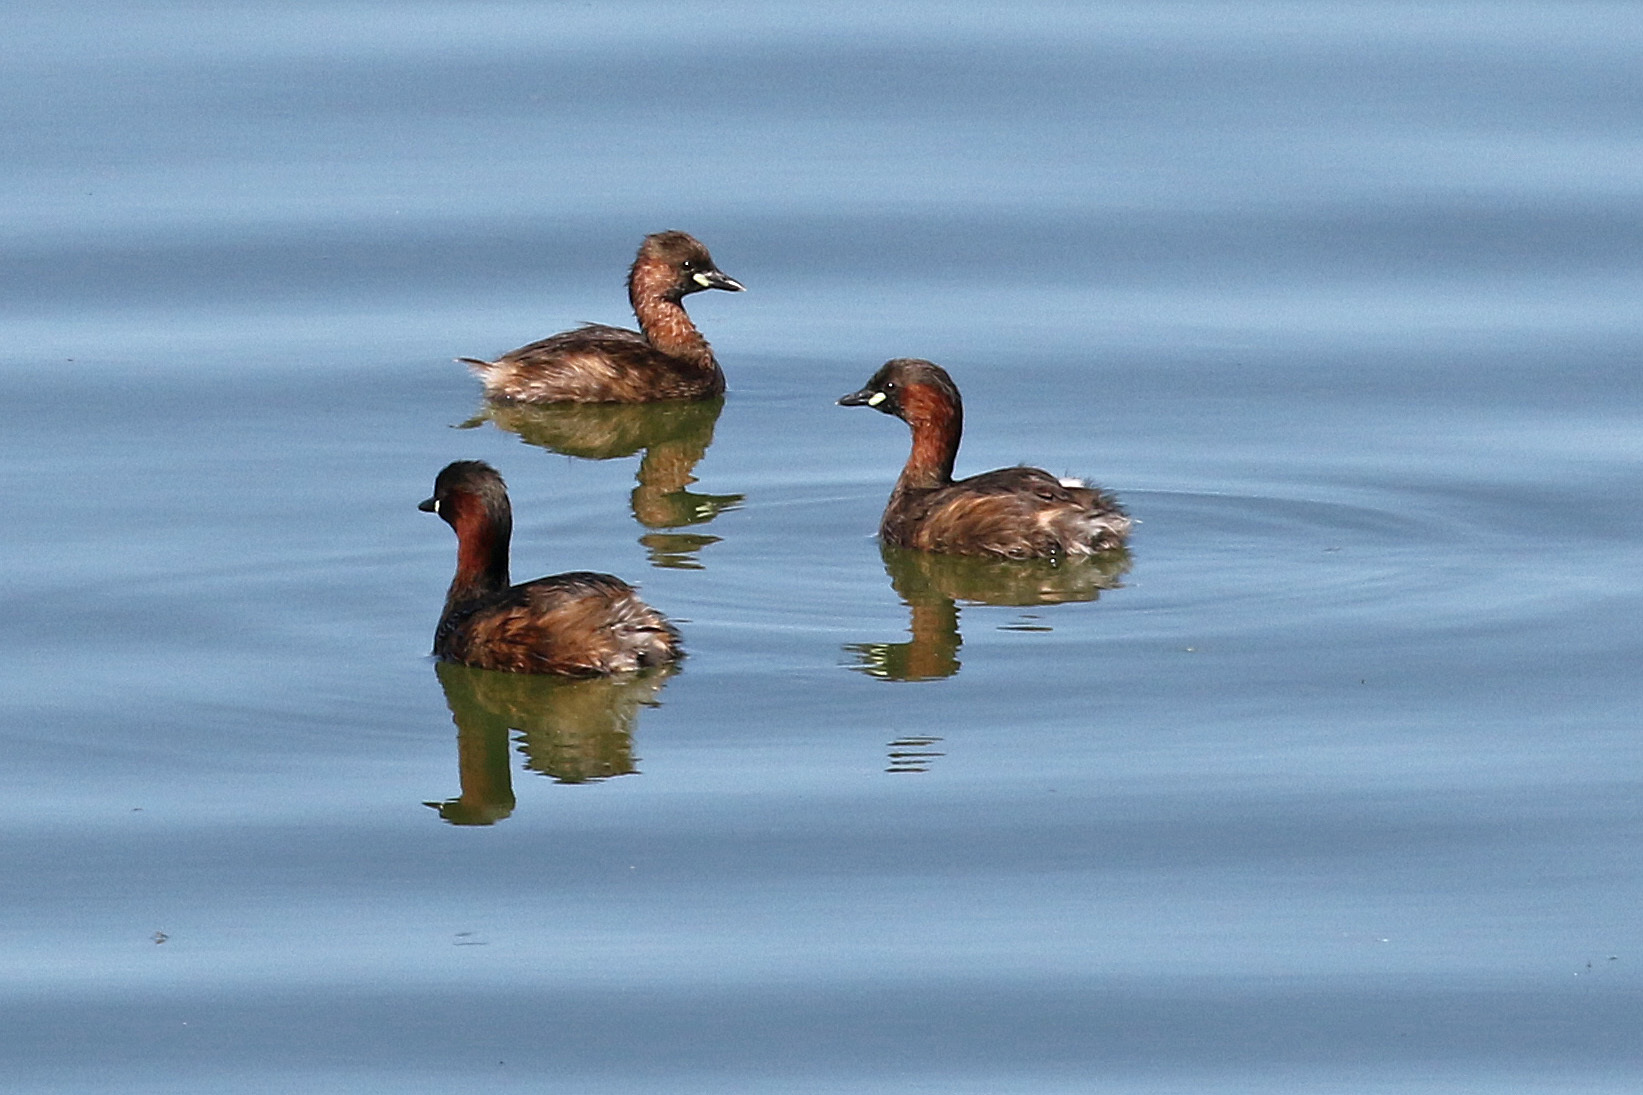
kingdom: Animalia
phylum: Chordata
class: Aves
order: Podicipediformes
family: Podicipedidae
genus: Tachybaptus
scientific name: Tachybaptus ruficollis
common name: Little grebe
